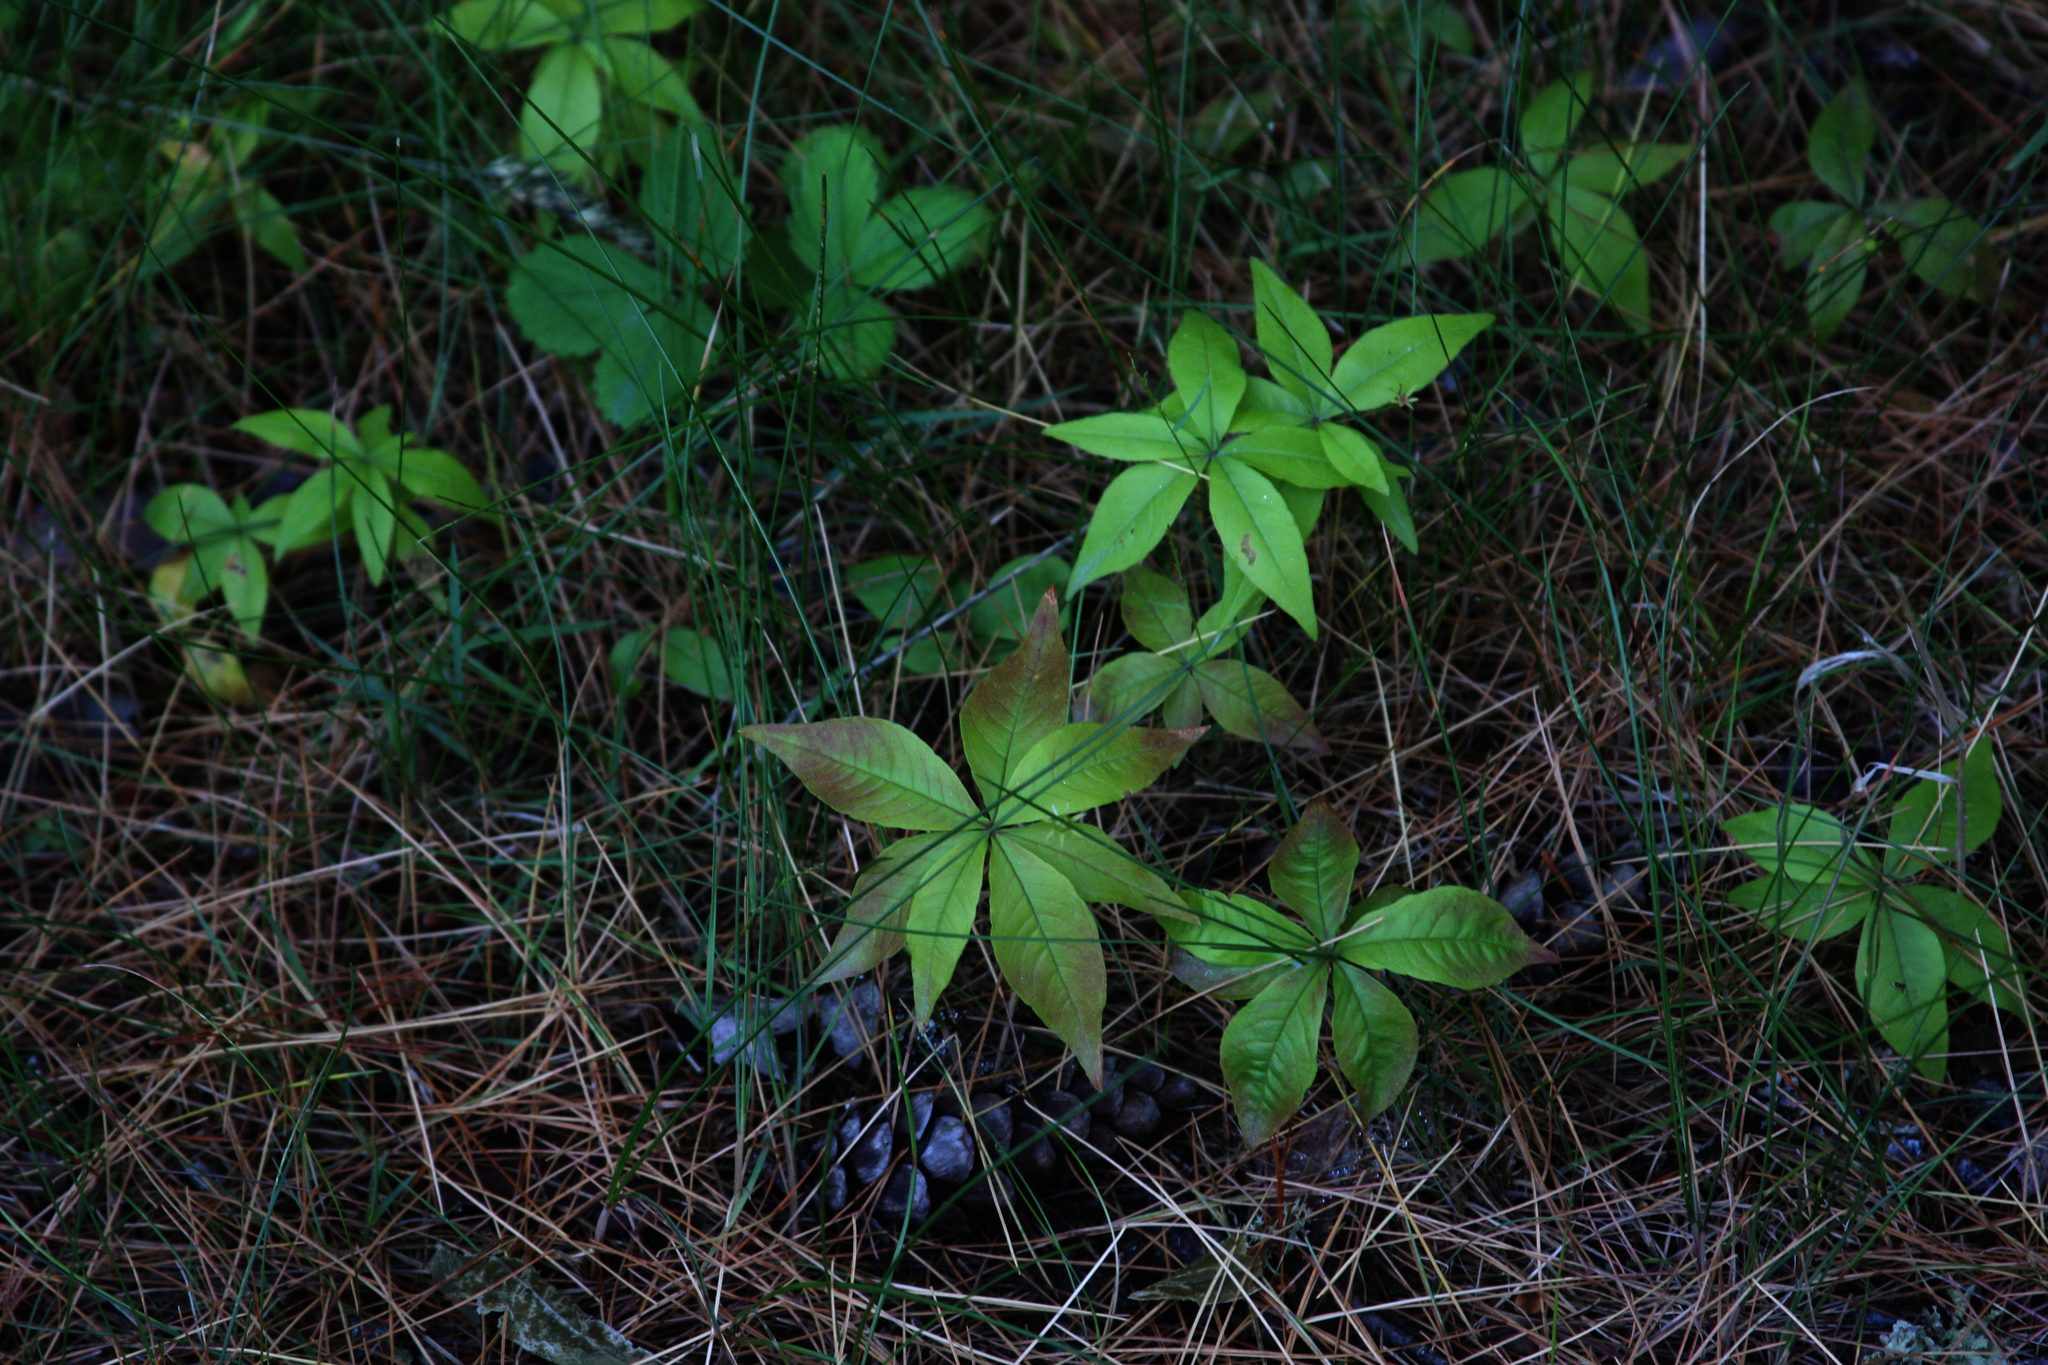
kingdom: Plantae
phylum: Tracheophyta
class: Magnoliopsida
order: Ericales
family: Primulaceae
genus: Lysimachia
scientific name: Lysimachia borealis
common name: American starflower
